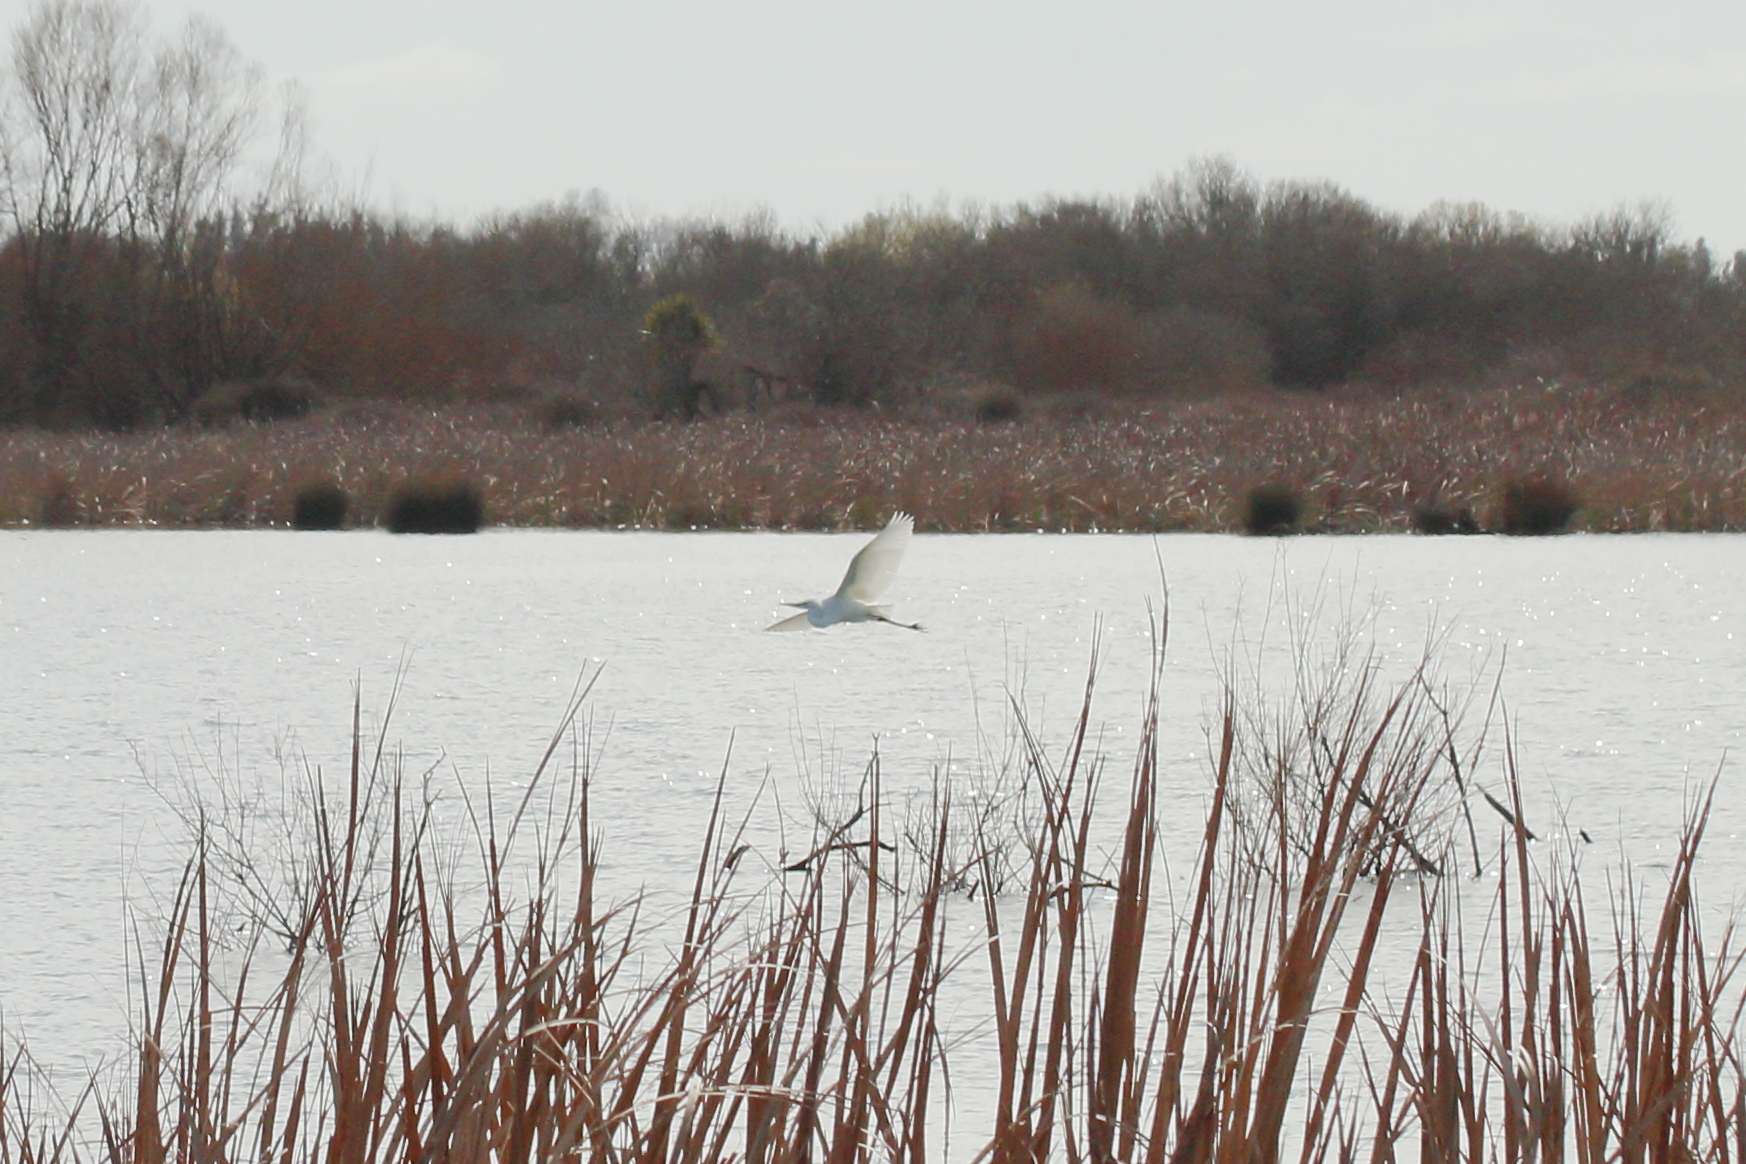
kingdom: Animalia
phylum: Chordata
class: Aves
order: Pelecaniformes
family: Ardeidae
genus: Ardea
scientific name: Ardea modesta
